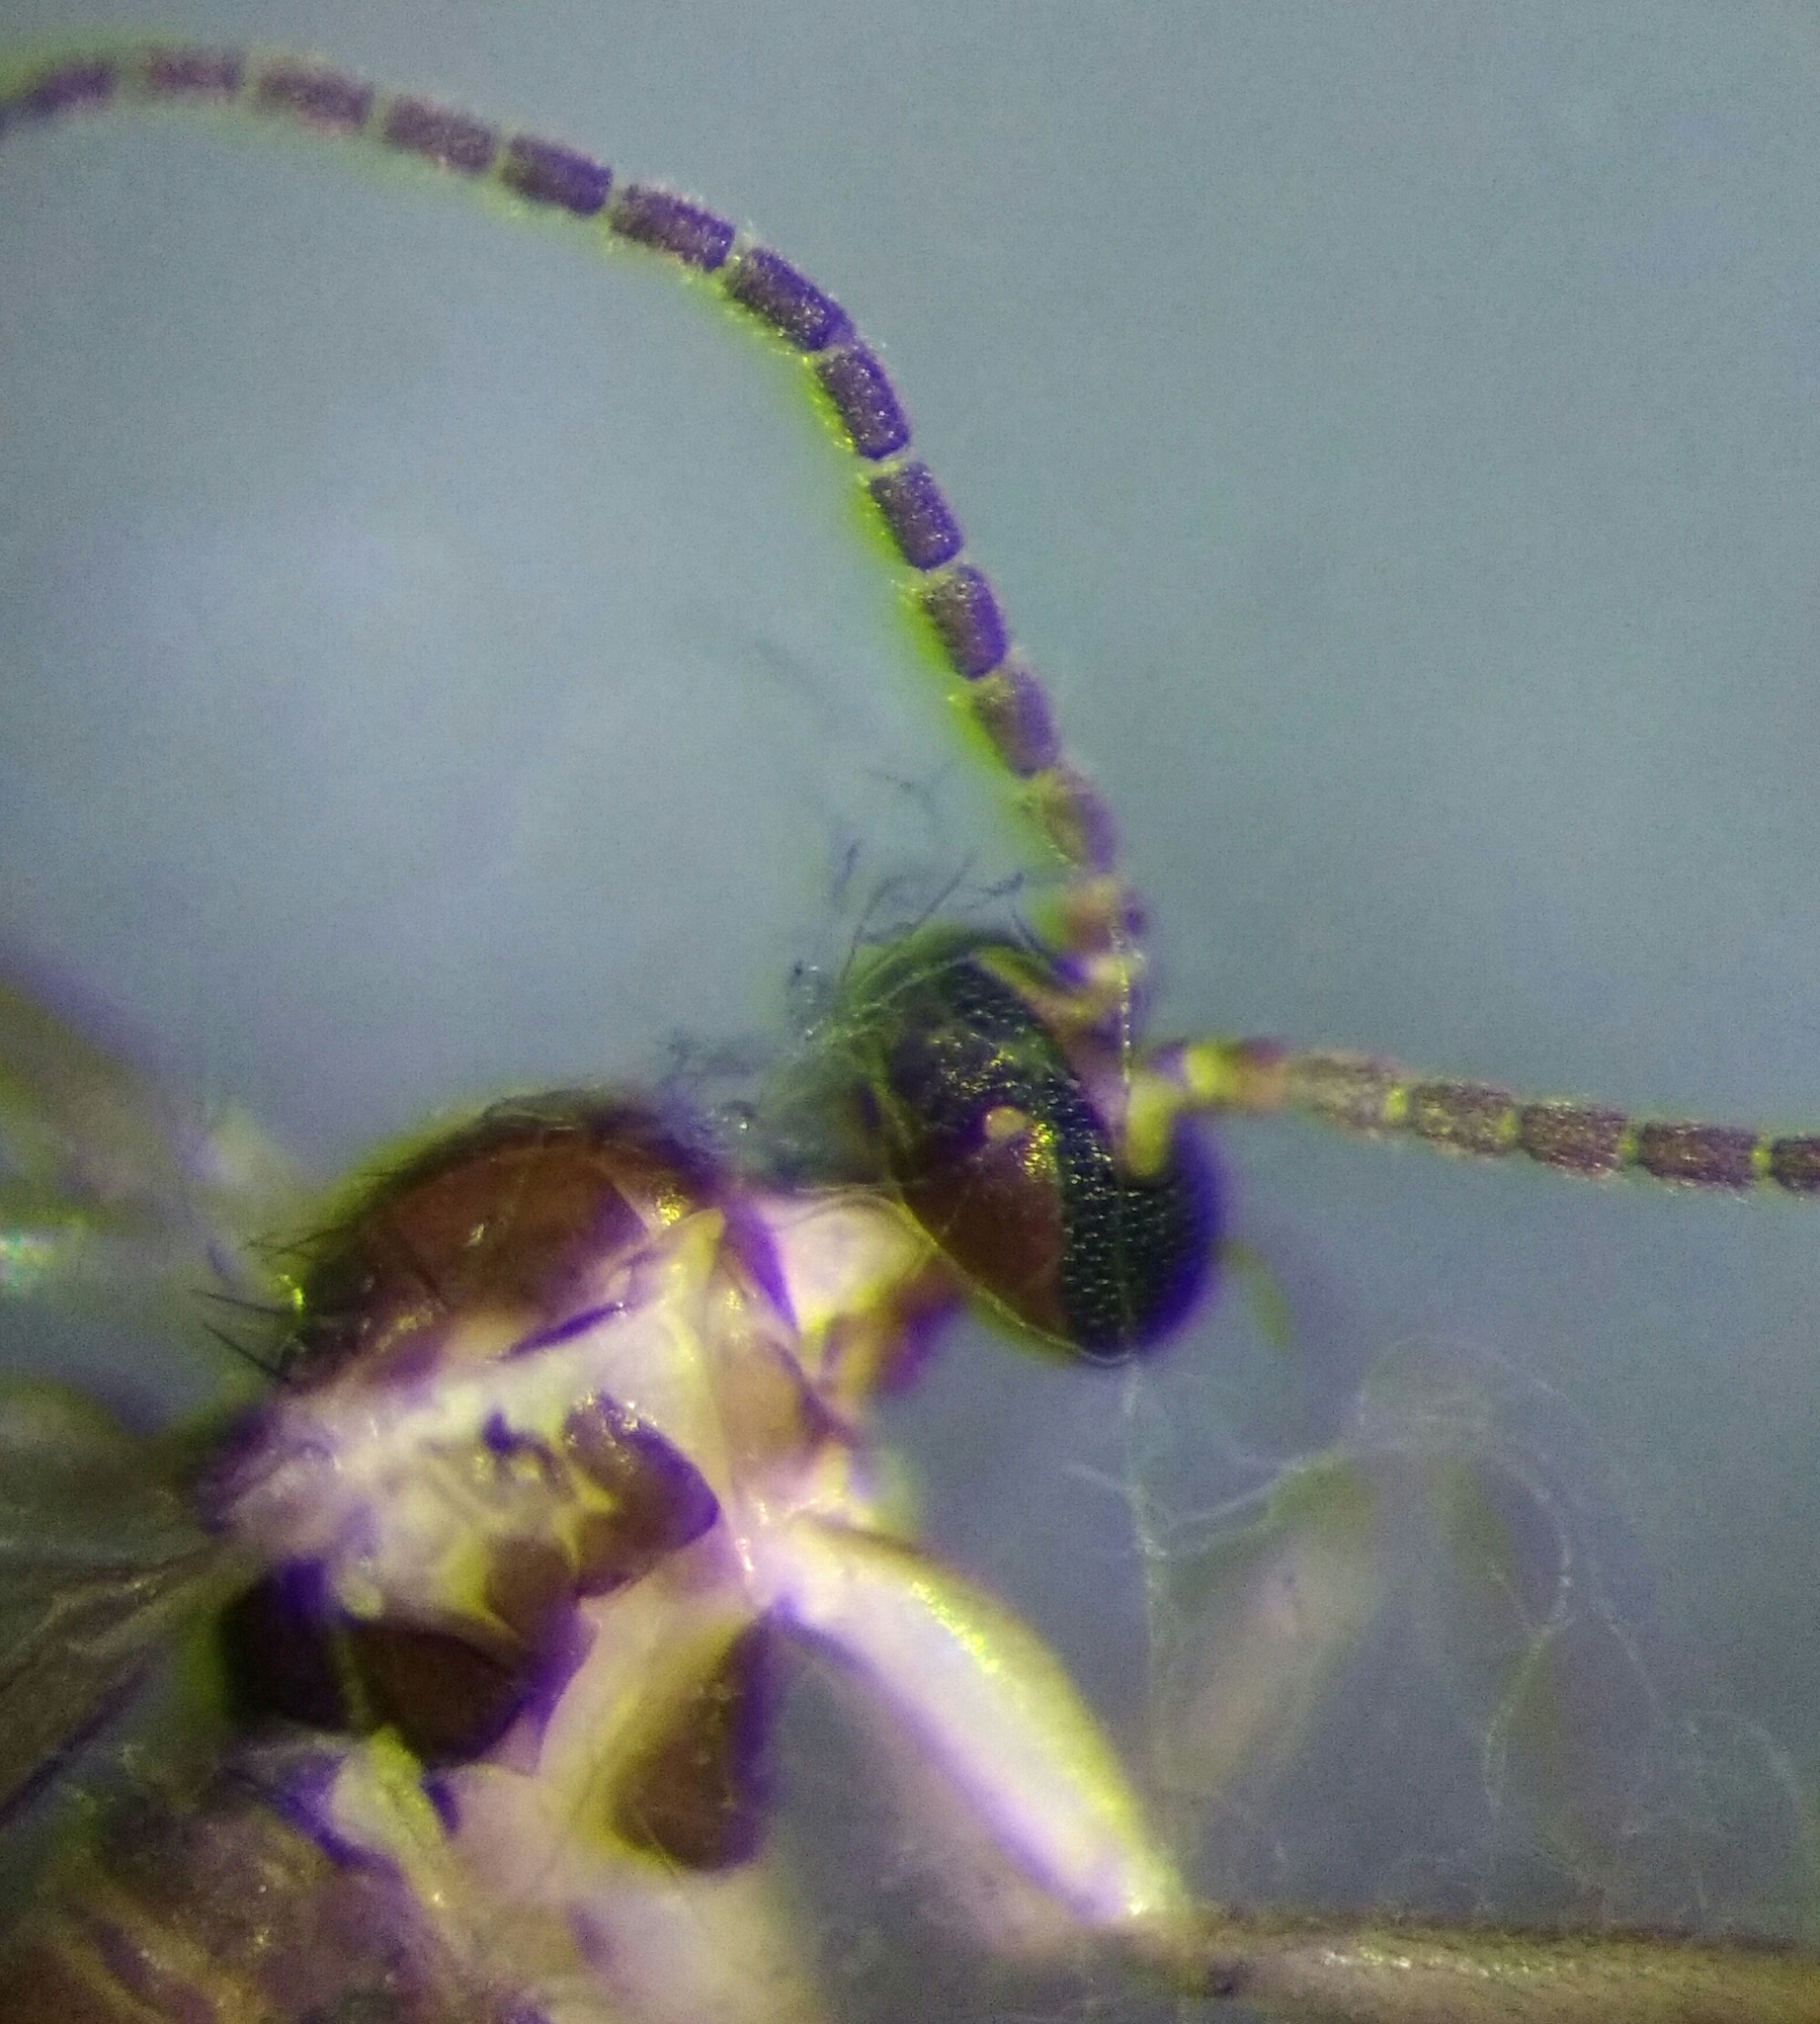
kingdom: Animalia
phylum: Arthropoda
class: Insecta
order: Diptera
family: Sciaridae
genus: Bradysia
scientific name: Bradysia ocellaris
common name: Dark-winged fungus gnat
